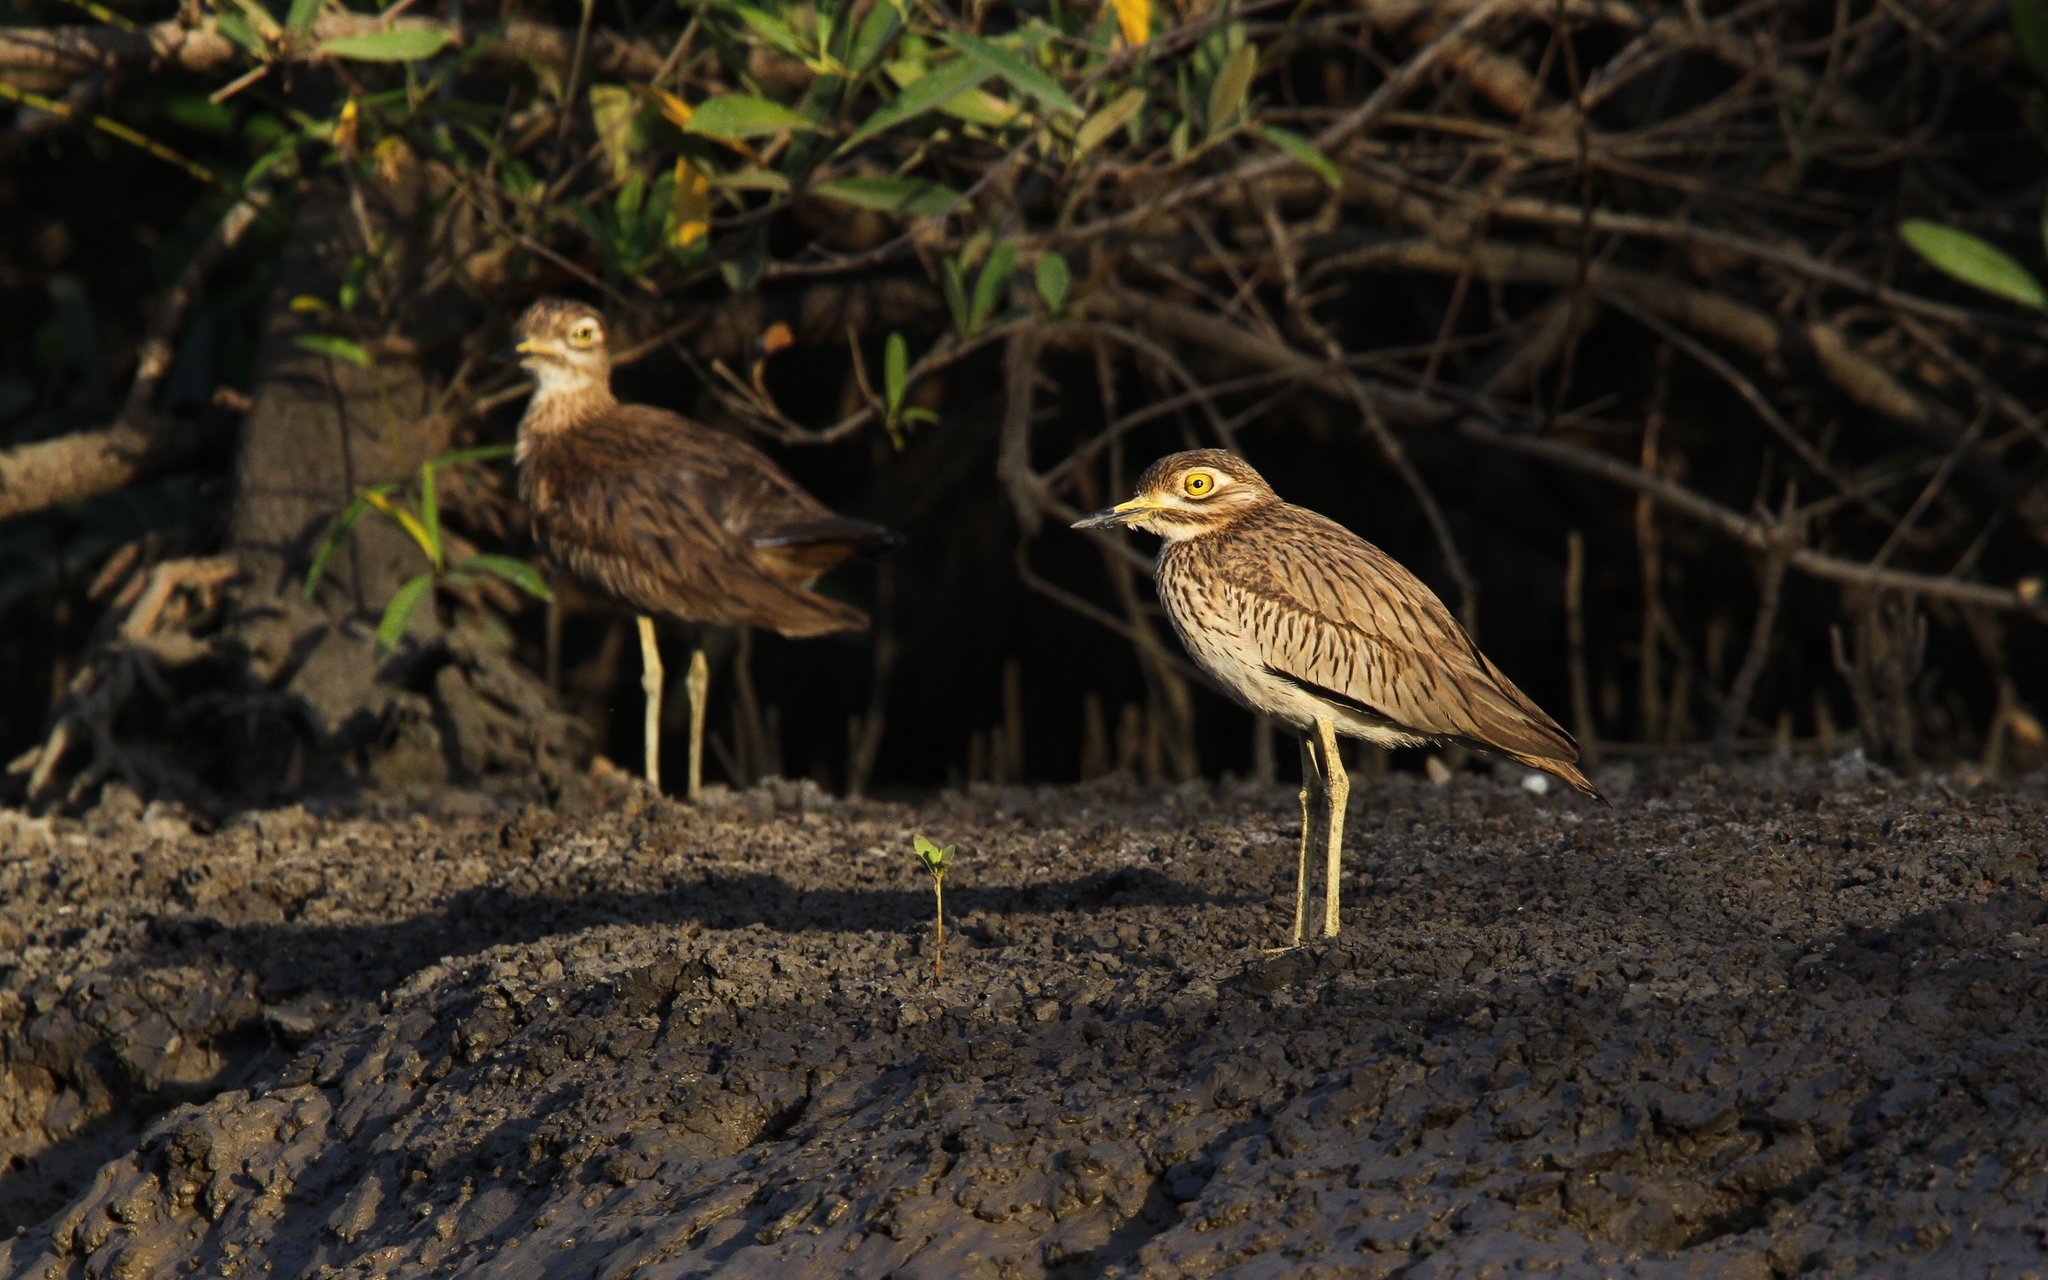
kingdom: Animalia
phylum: Chordata
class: Aves
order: Charadriiformes
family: Burhinidae
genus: Burhinus
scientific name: Burhinus senegalensis
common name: Senegal thick-knee
